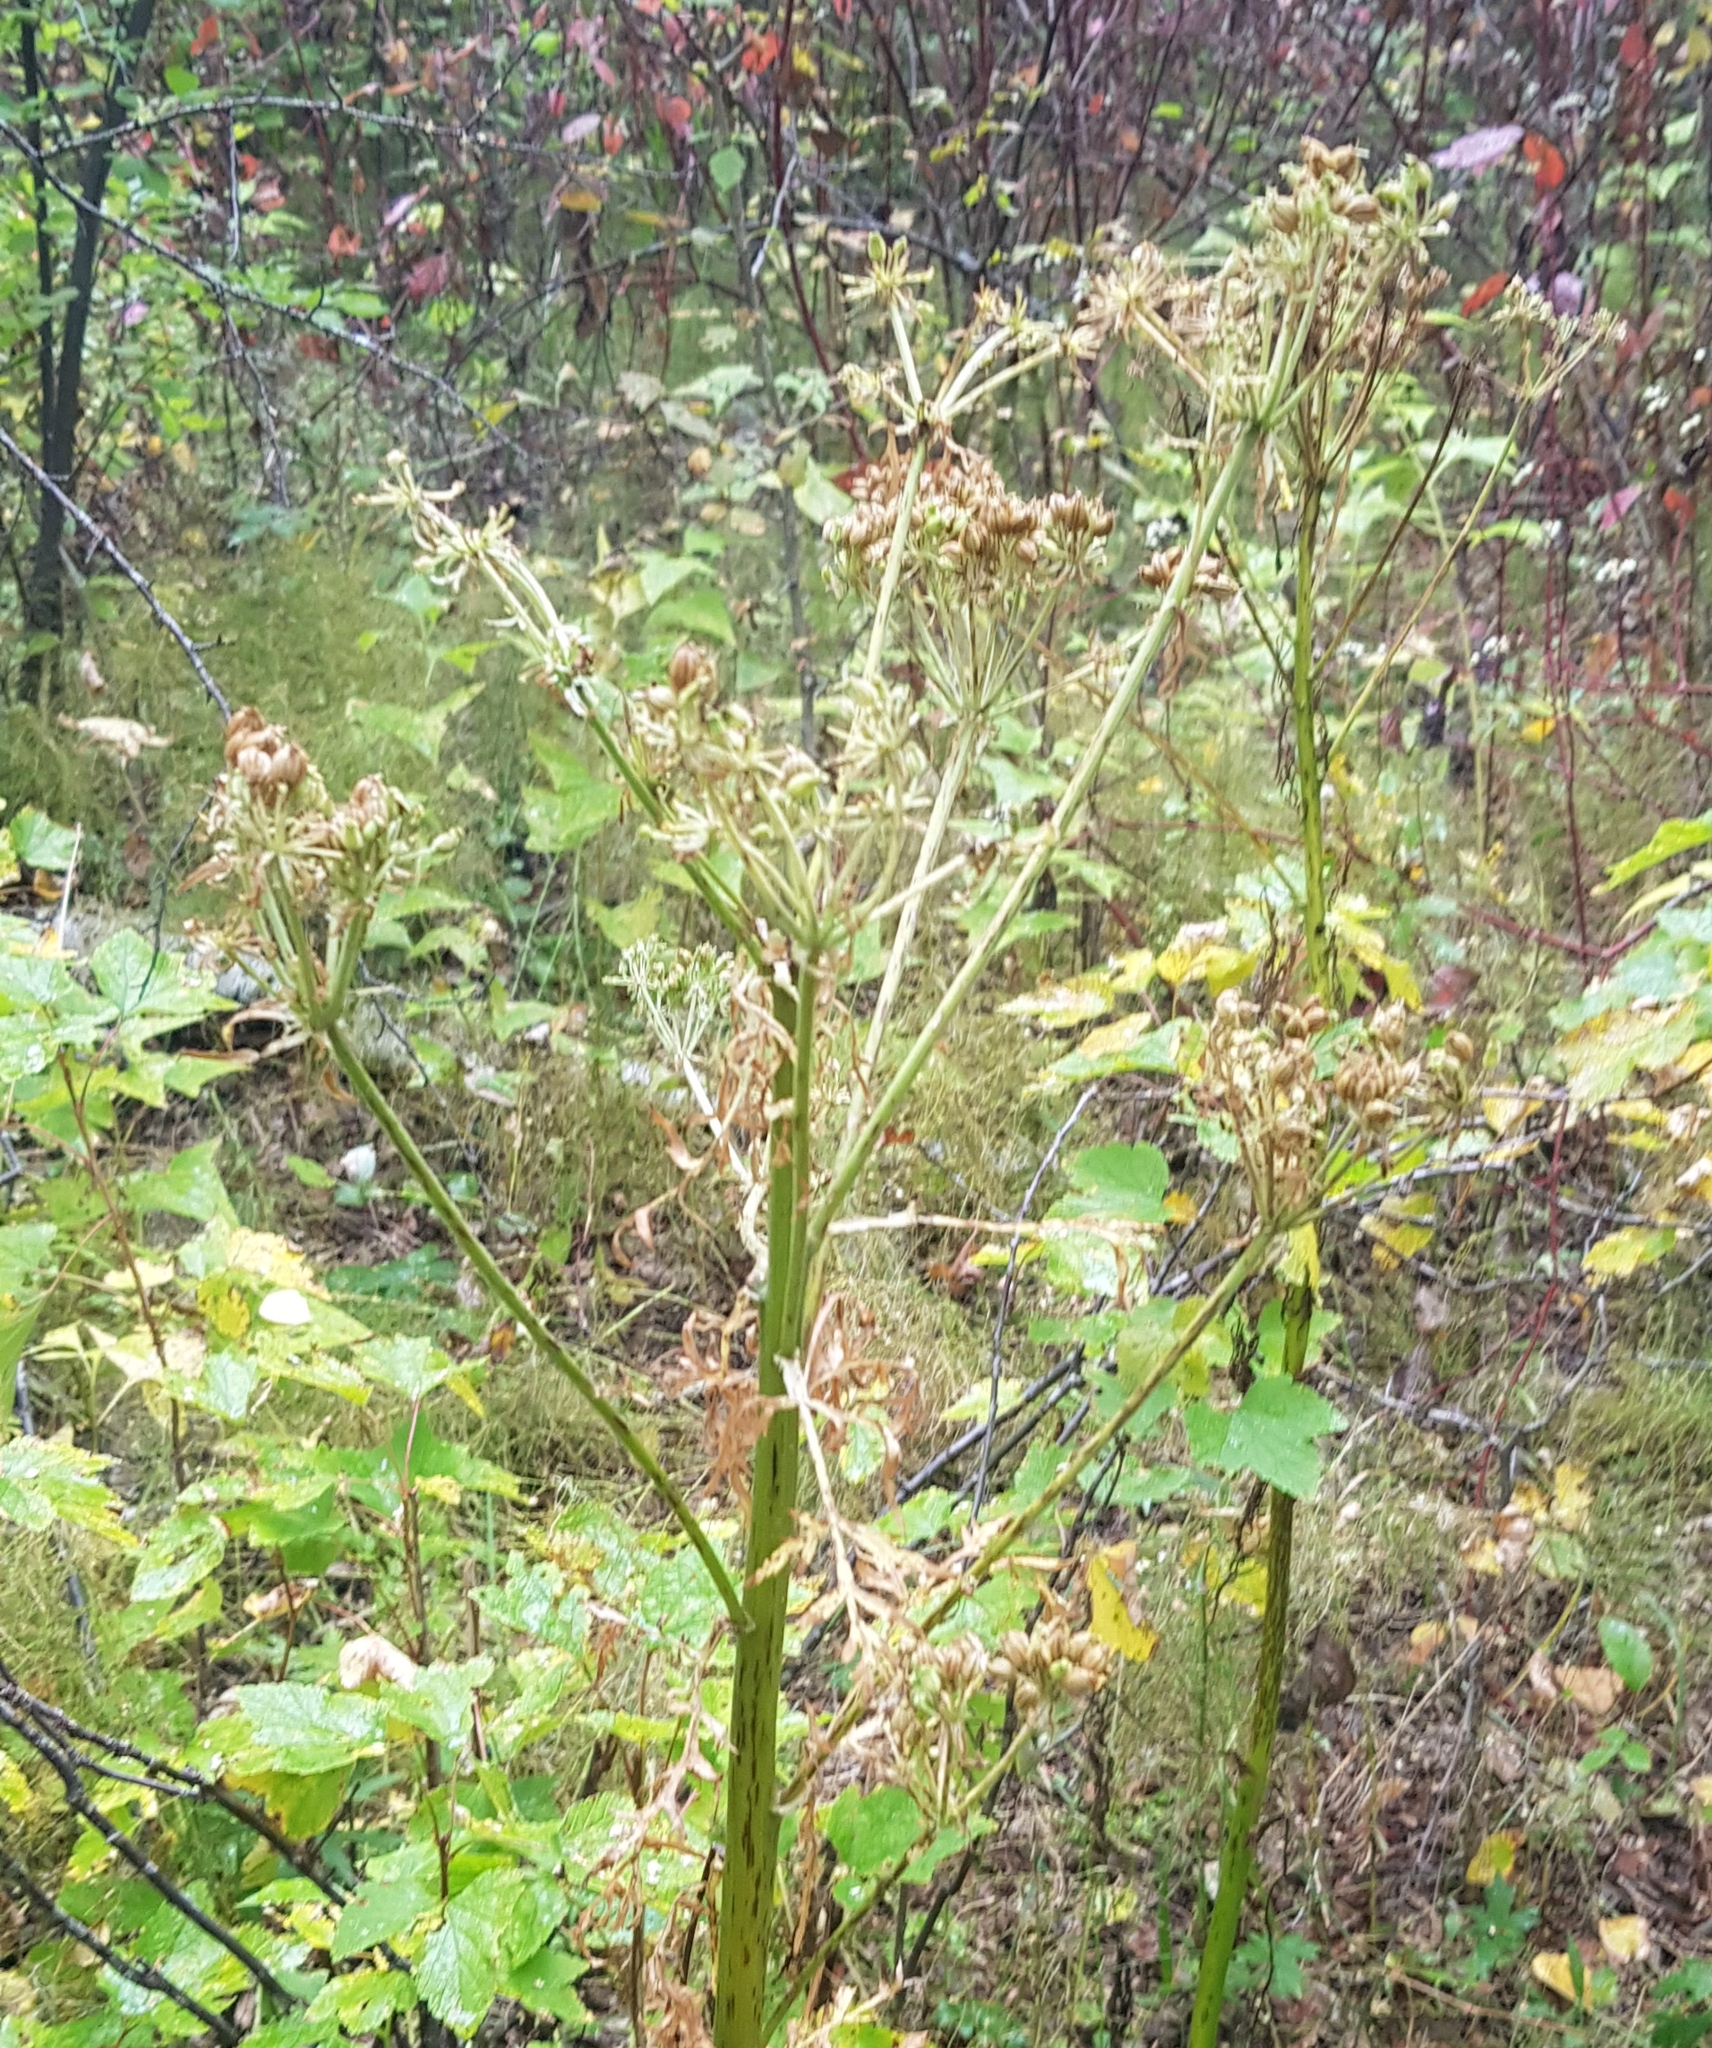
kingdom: Plantae
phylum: Tracheophyta
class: Magnoliopsida
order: Apiales
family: Apiaceae
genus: Pleurospermum
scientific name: Pleurospermum uralense
